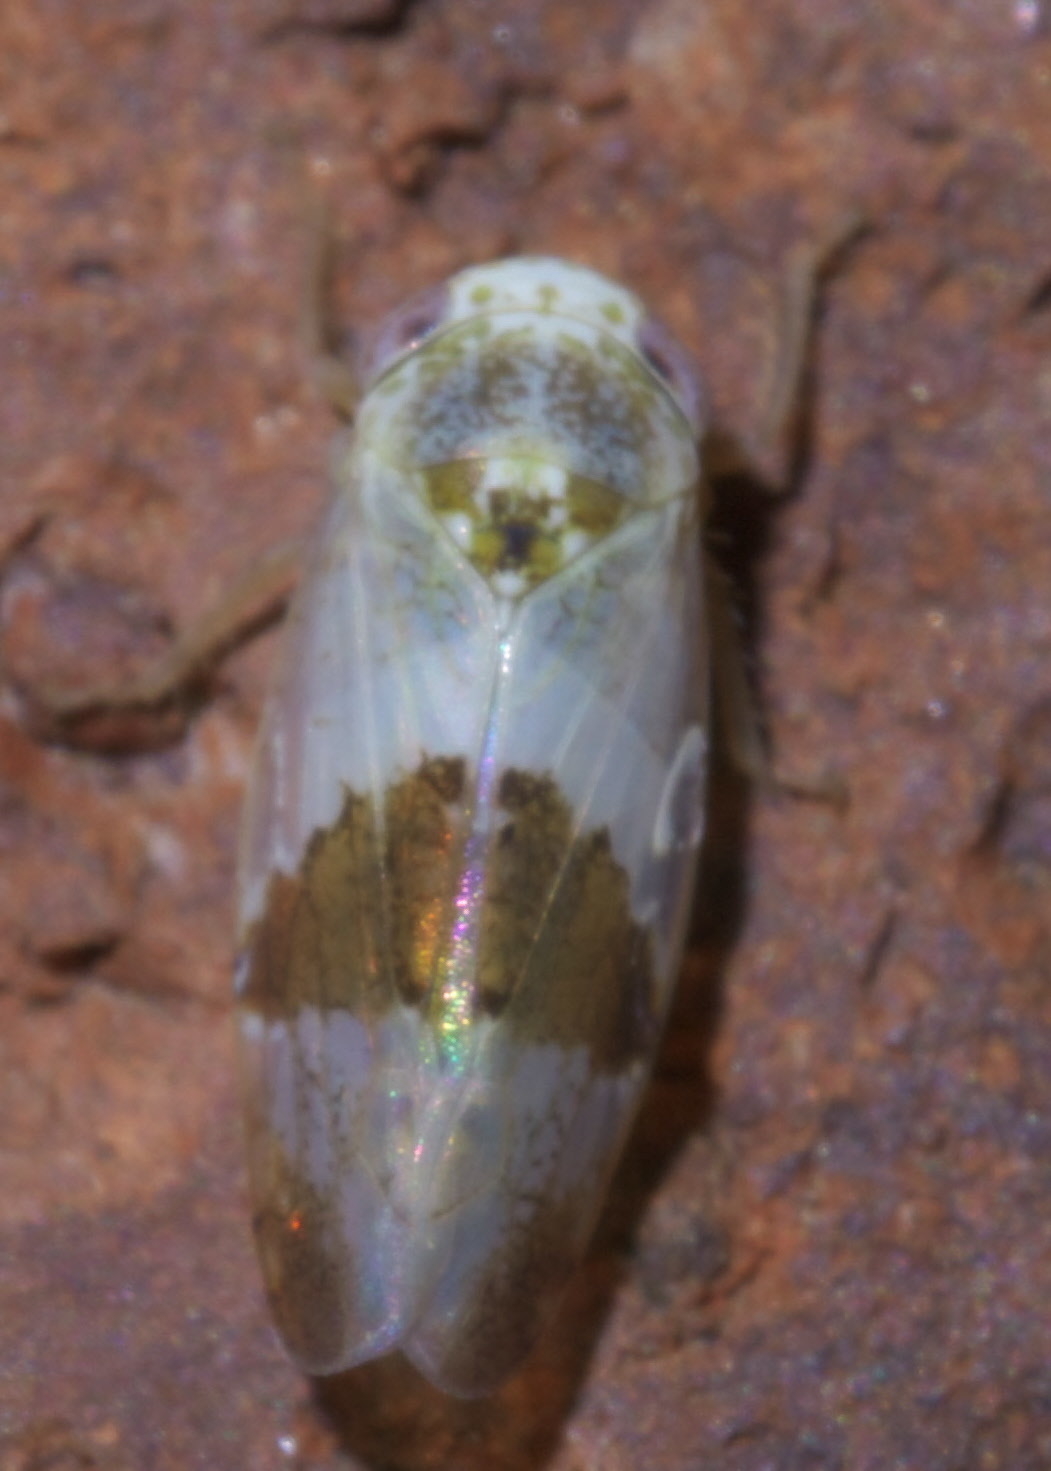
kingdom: Animalia
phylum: Arthropoda
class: Insecta
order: Hemiptera
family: Cicadellidae
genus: Norvellina
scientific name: Norvellina seminuda
